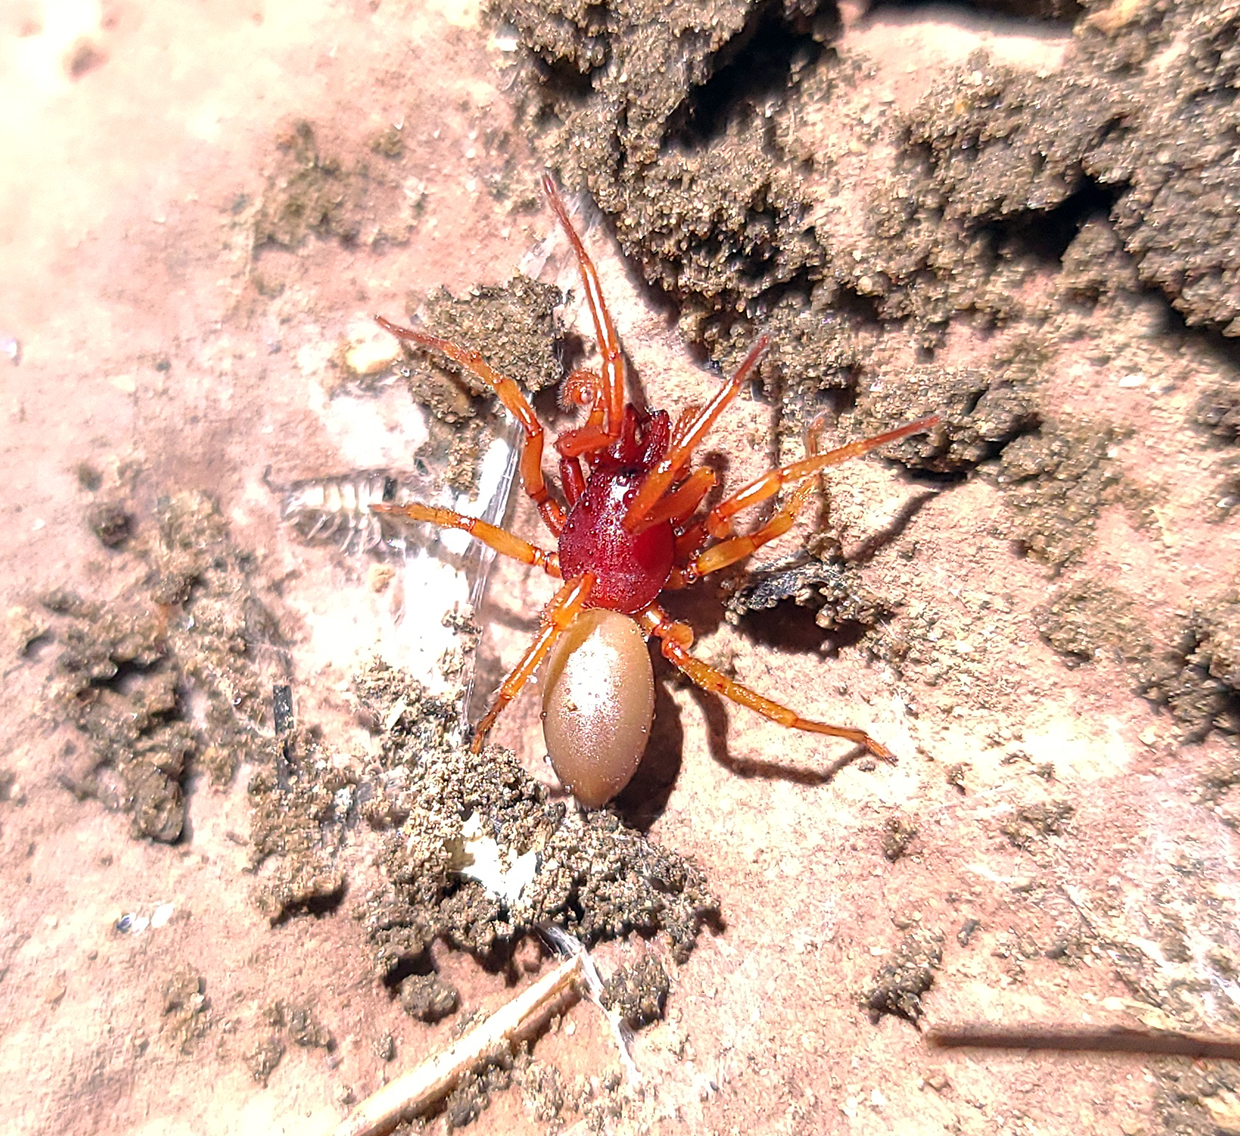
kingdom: Animalia
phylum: Arthropoda
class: Arachnida
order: Araneae
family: Dysderidae
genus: Dysdera
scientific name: Dysdera crocata
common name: Woodlouse spider
